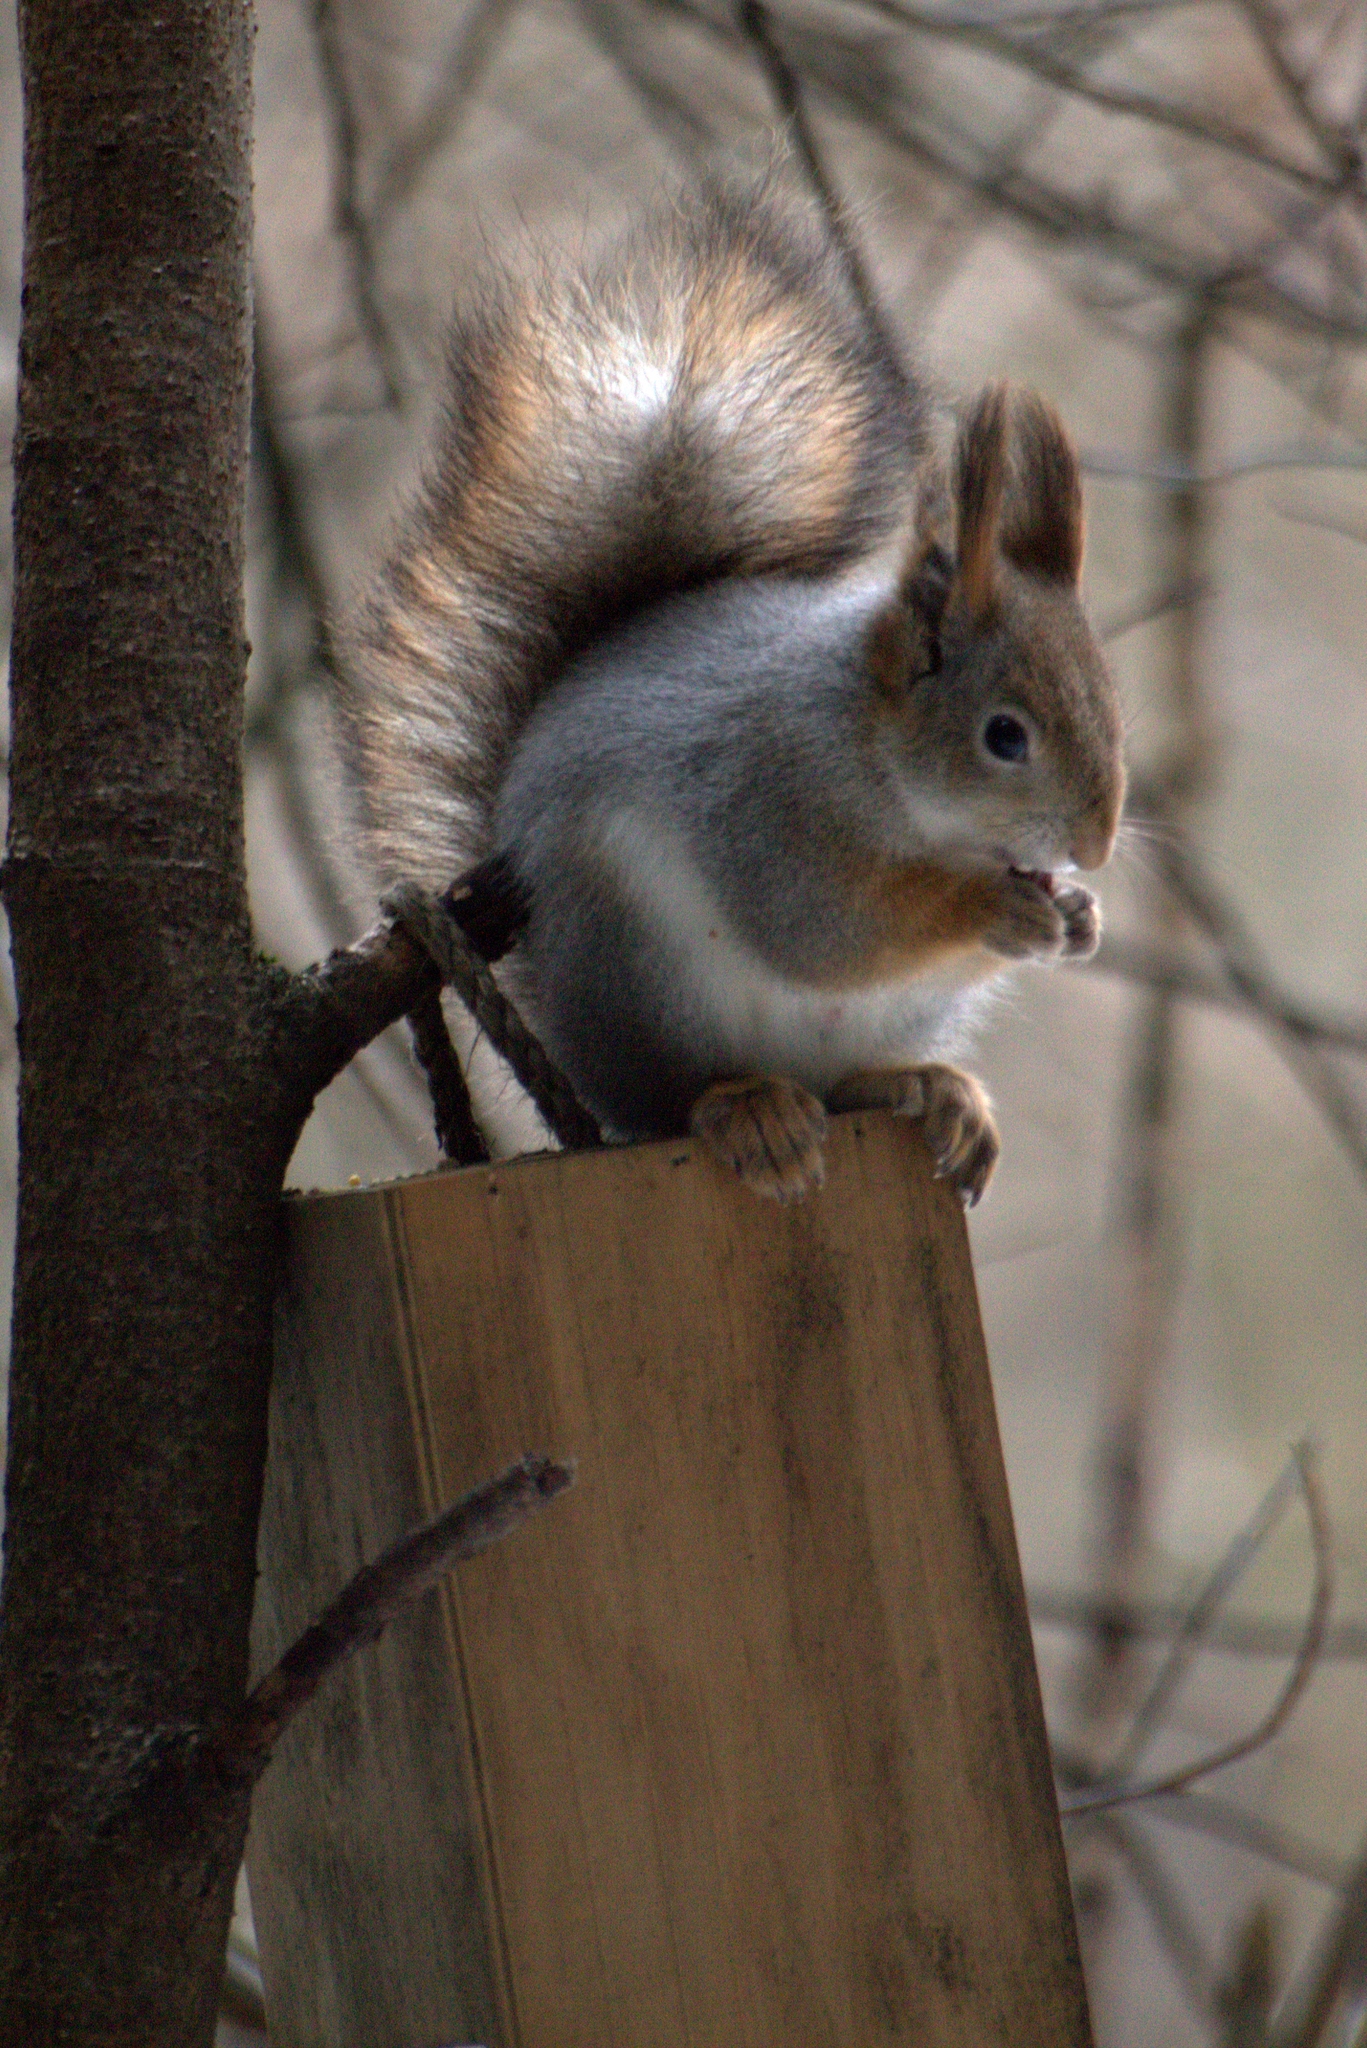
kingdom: Animalia
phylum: Chordata
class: Mammalia
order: Rodentia
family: Sciuridae
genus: Sciurus
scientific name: Sciurus vulgaris
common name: Eurasian red squirrel
